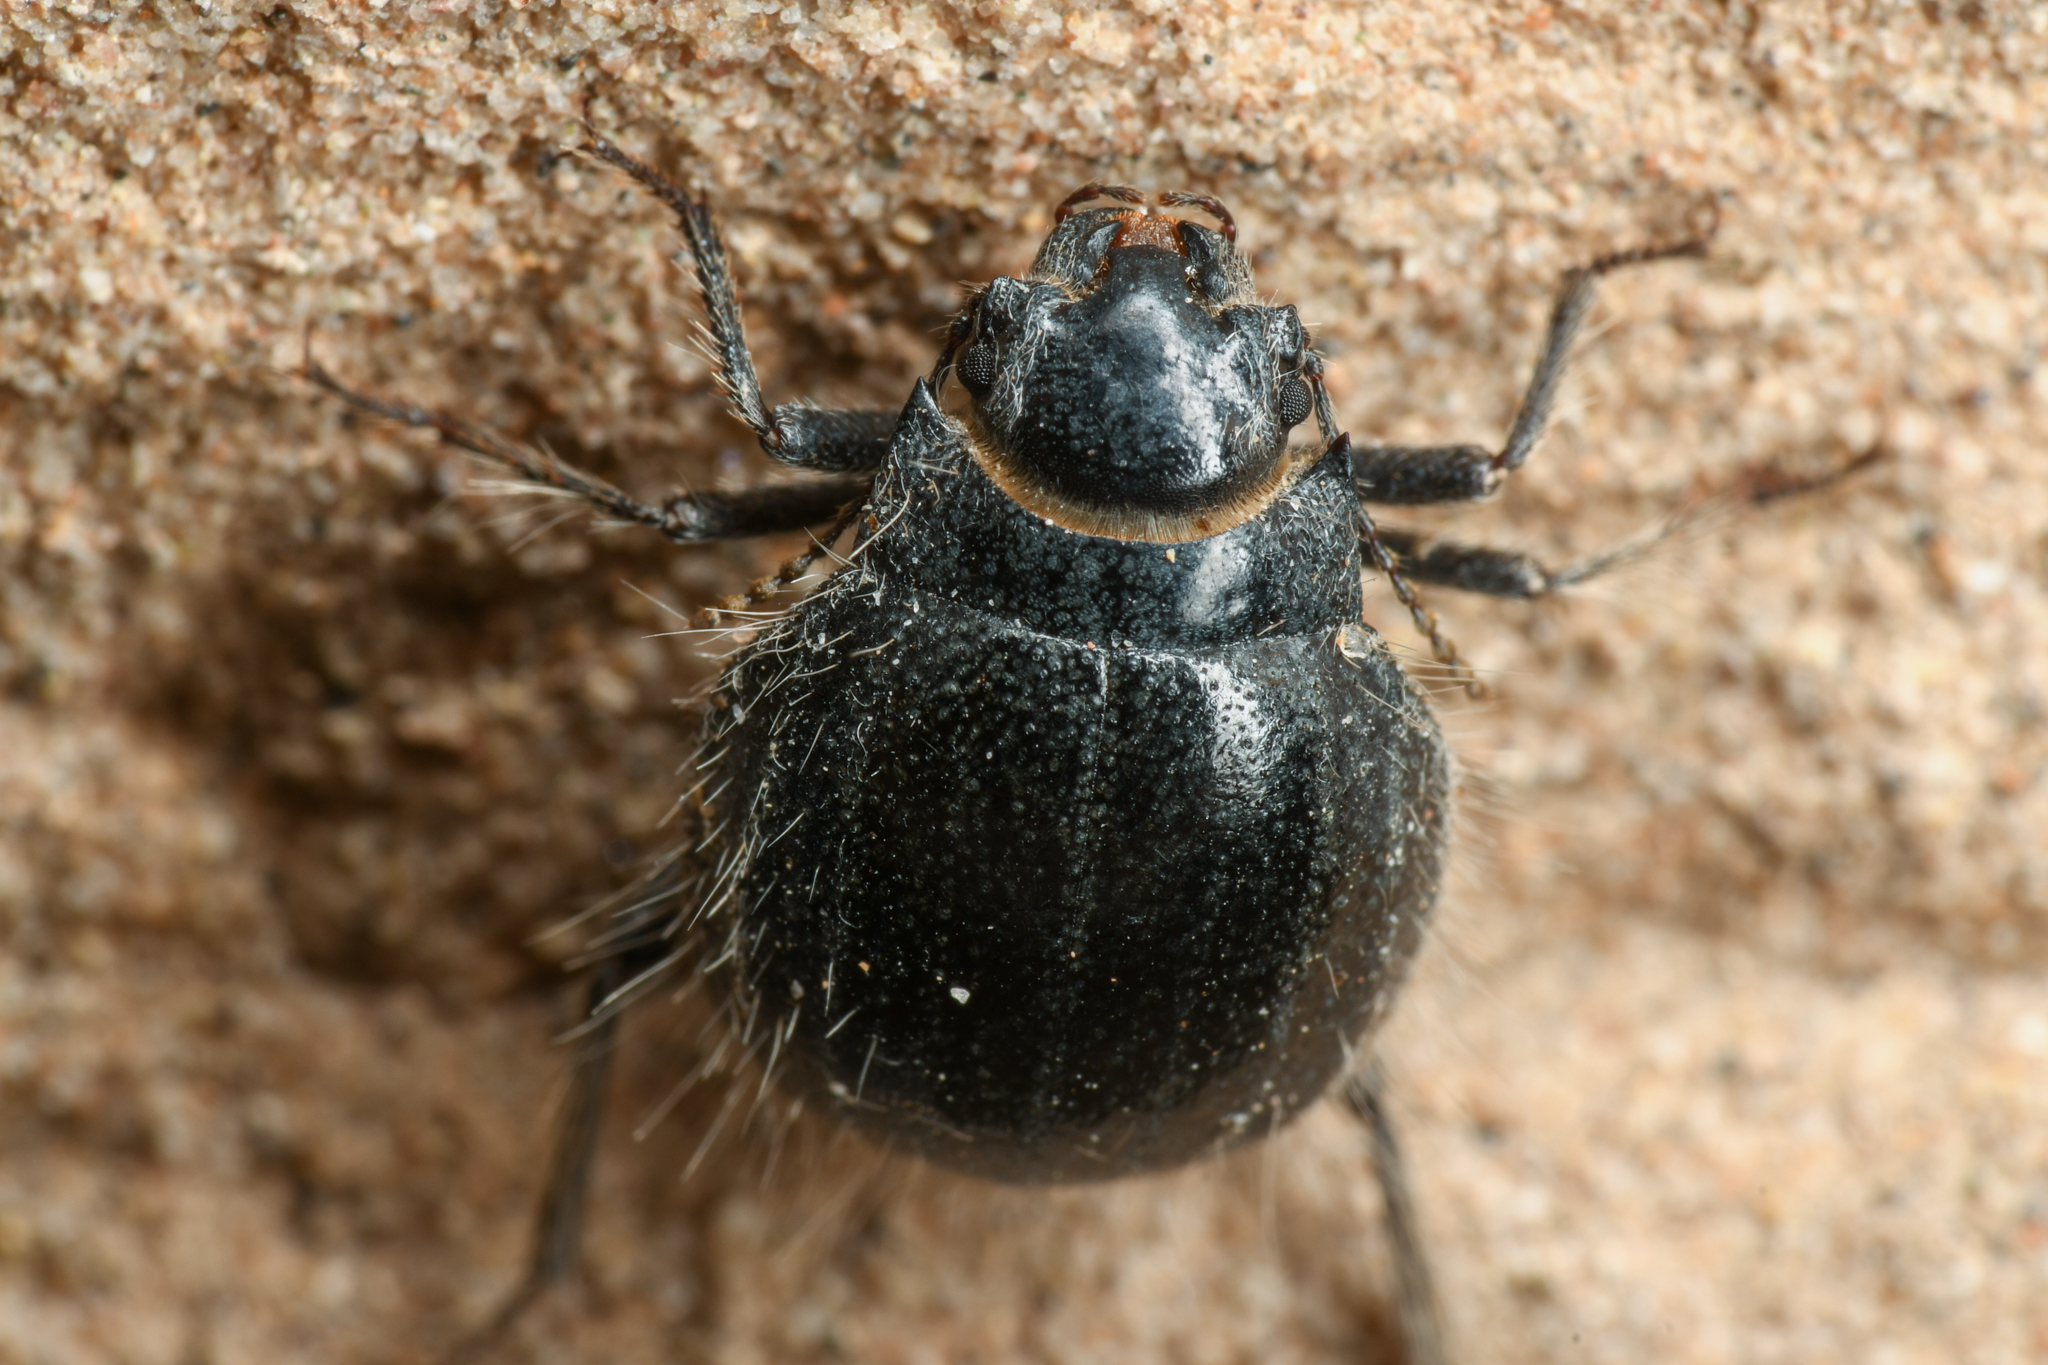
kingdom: Animalia
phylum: Arthropoda
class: Insecta
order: Coleoptera
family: Tenebrionidae
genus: Edrotes
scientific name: Edrotes ventricosus
